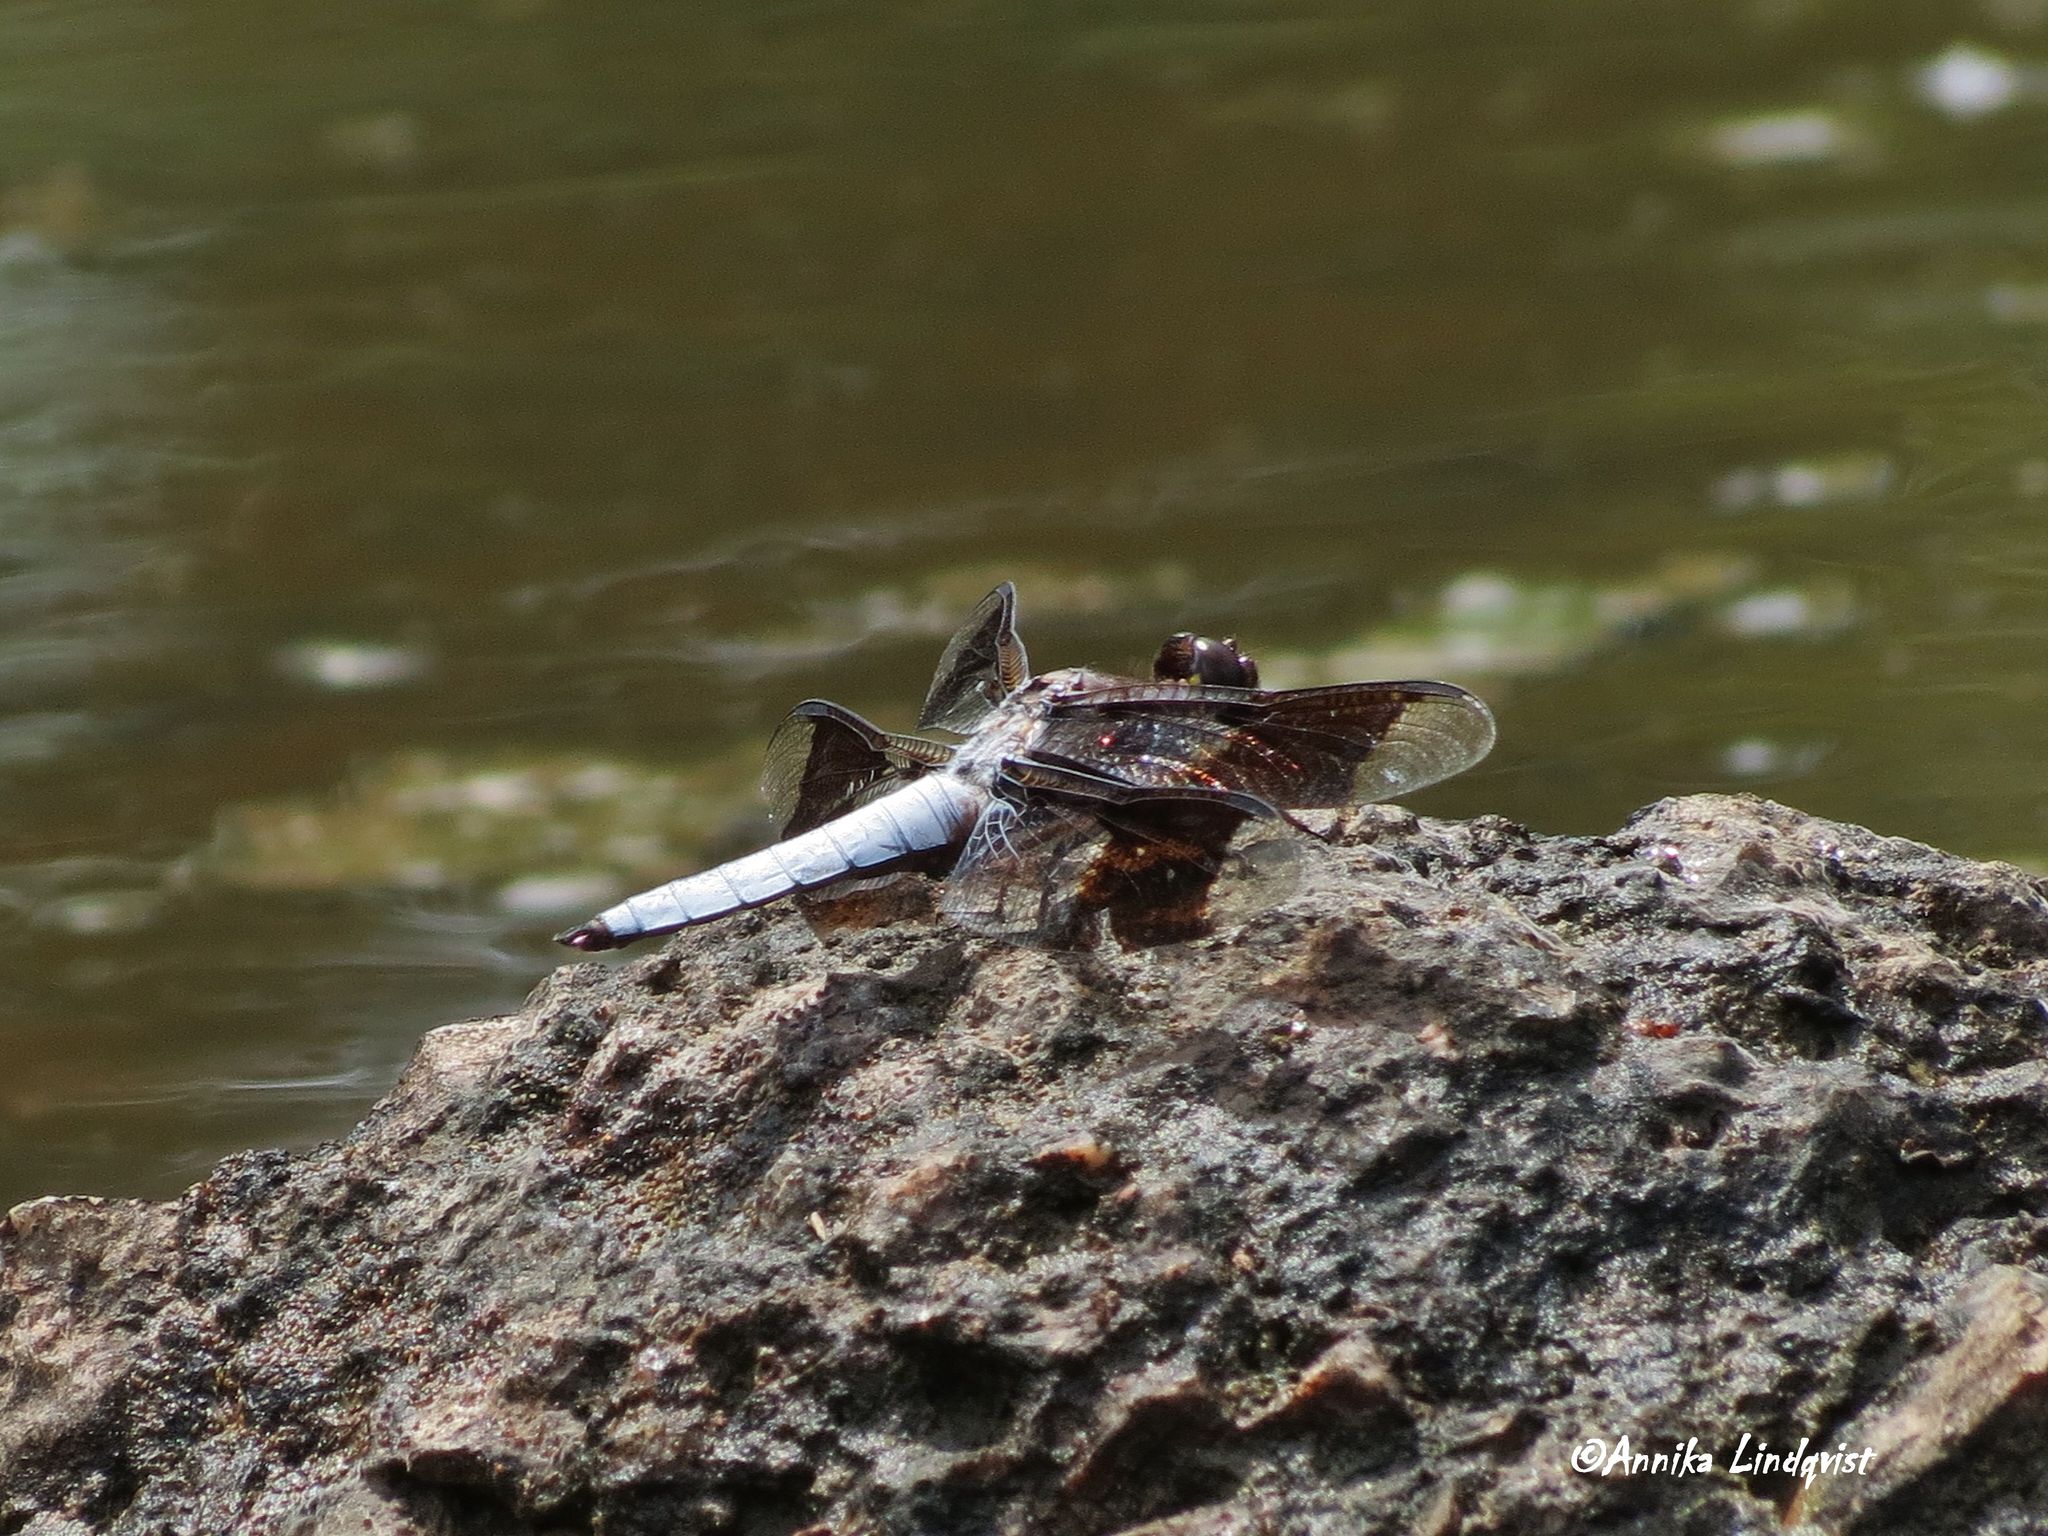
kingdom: Animalia
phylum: Arthropoda
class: Insecta
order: Odonata
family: Libellulidae
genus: Plathemis
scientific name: Plathemis lydia
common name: Common whitetail
